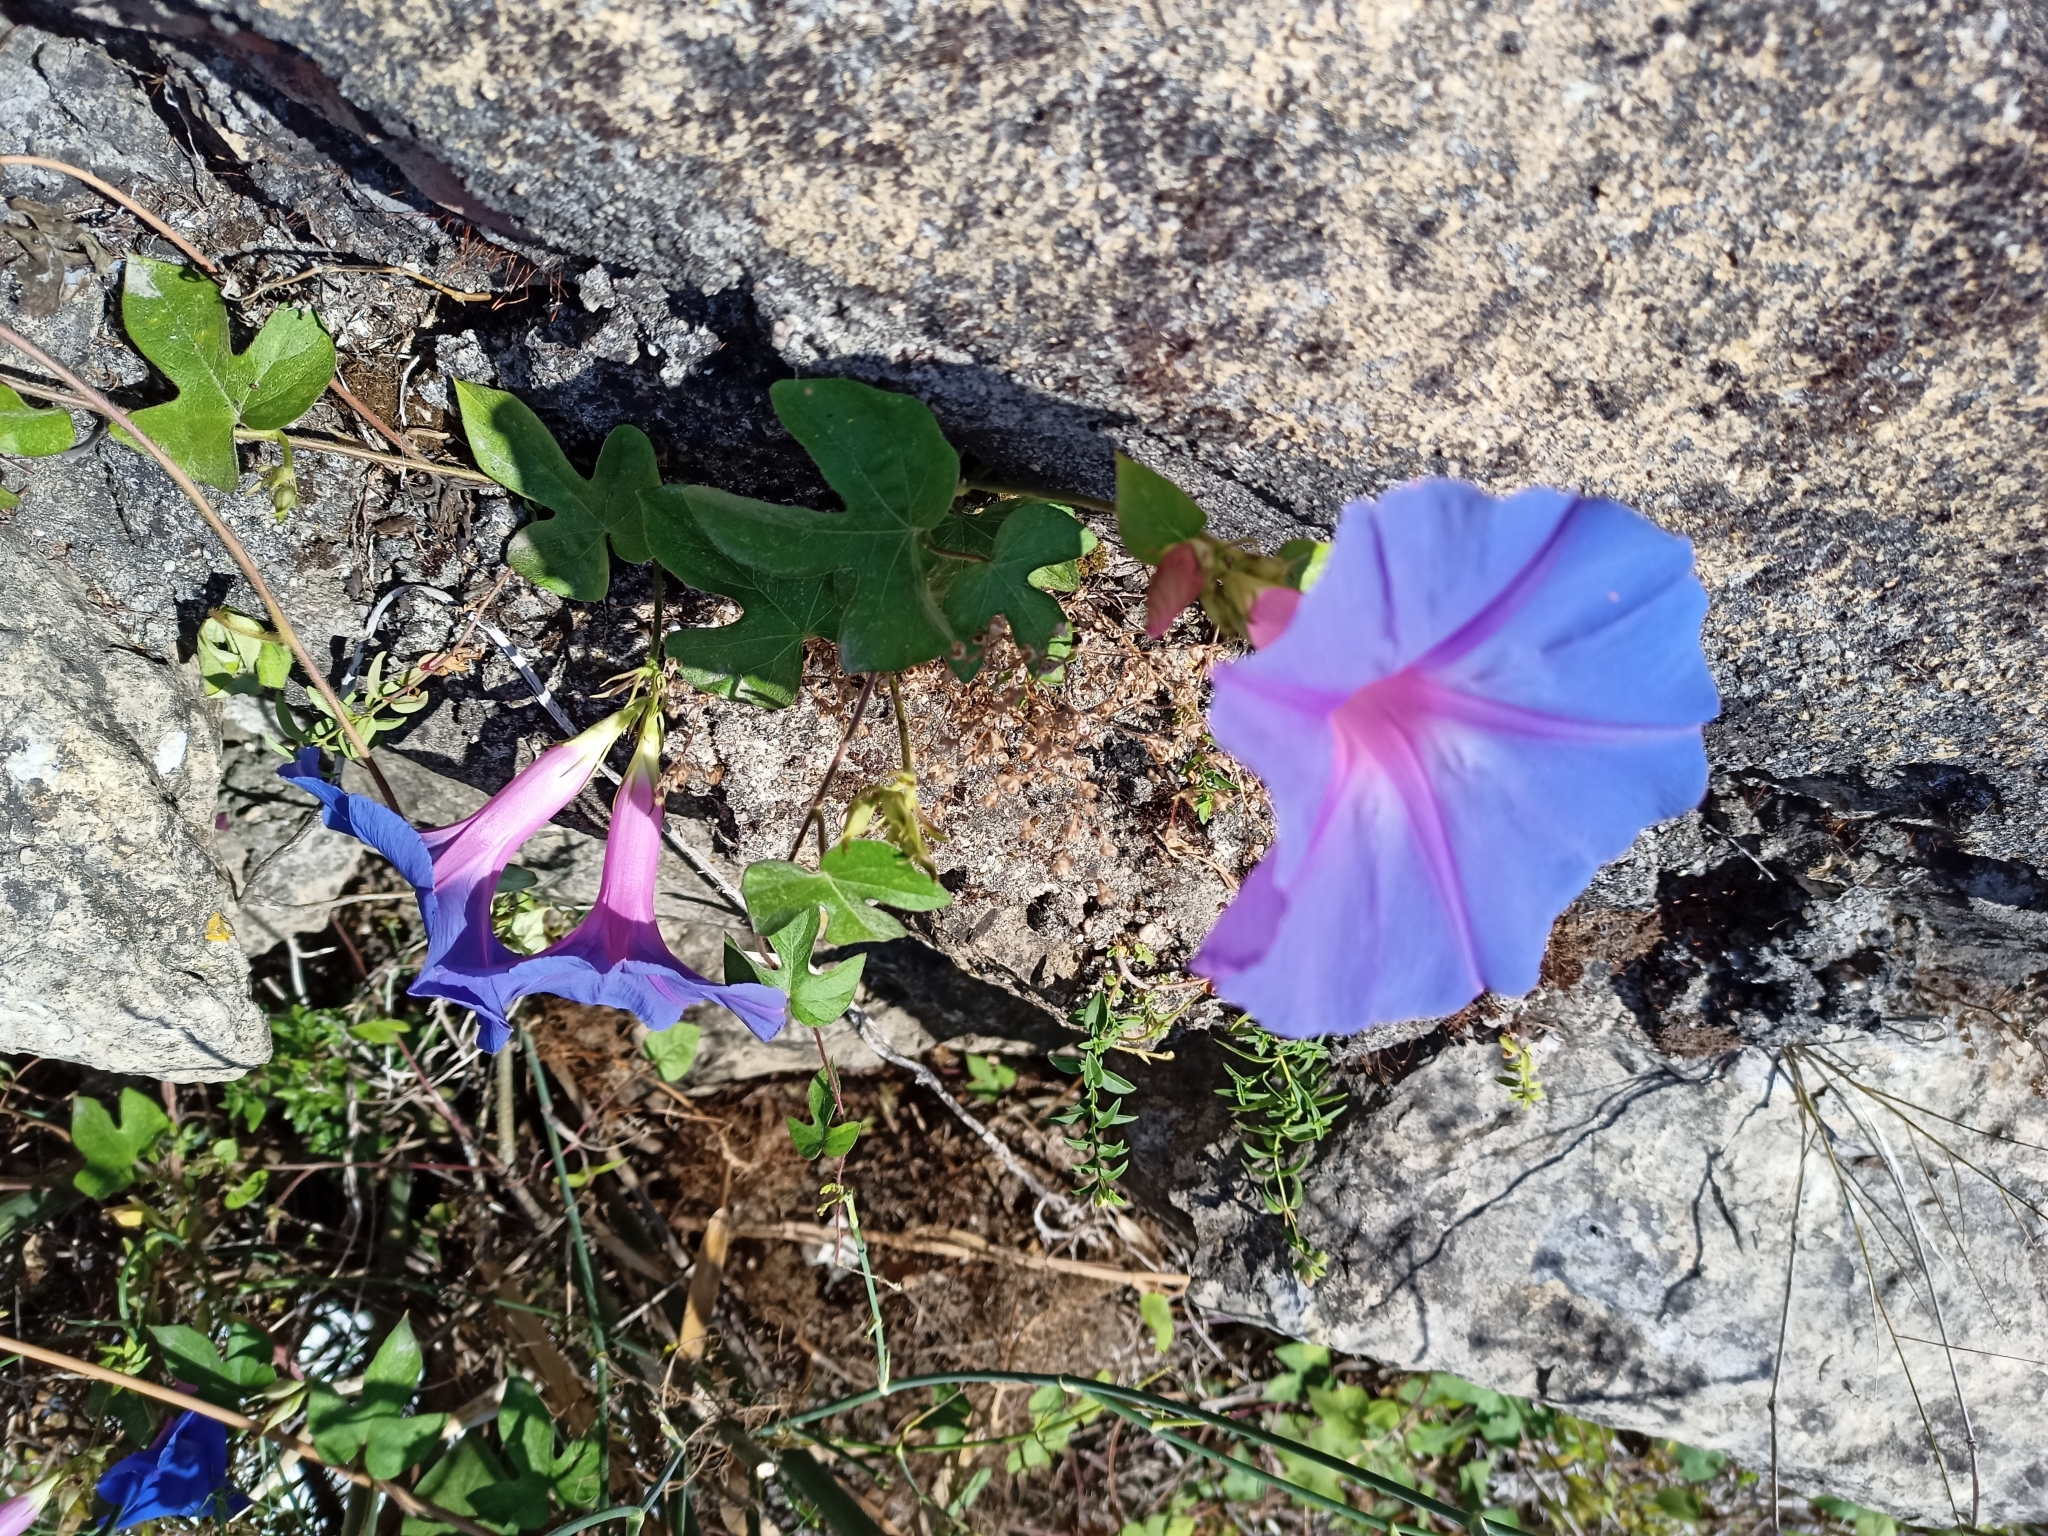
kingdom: Plantae
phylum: Tracheophyta
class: Magnoliopsida
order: Solanales
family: Convolvulaceae
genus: Ipomoea
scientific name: Ipomoea indica
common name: Blue dawnflower
